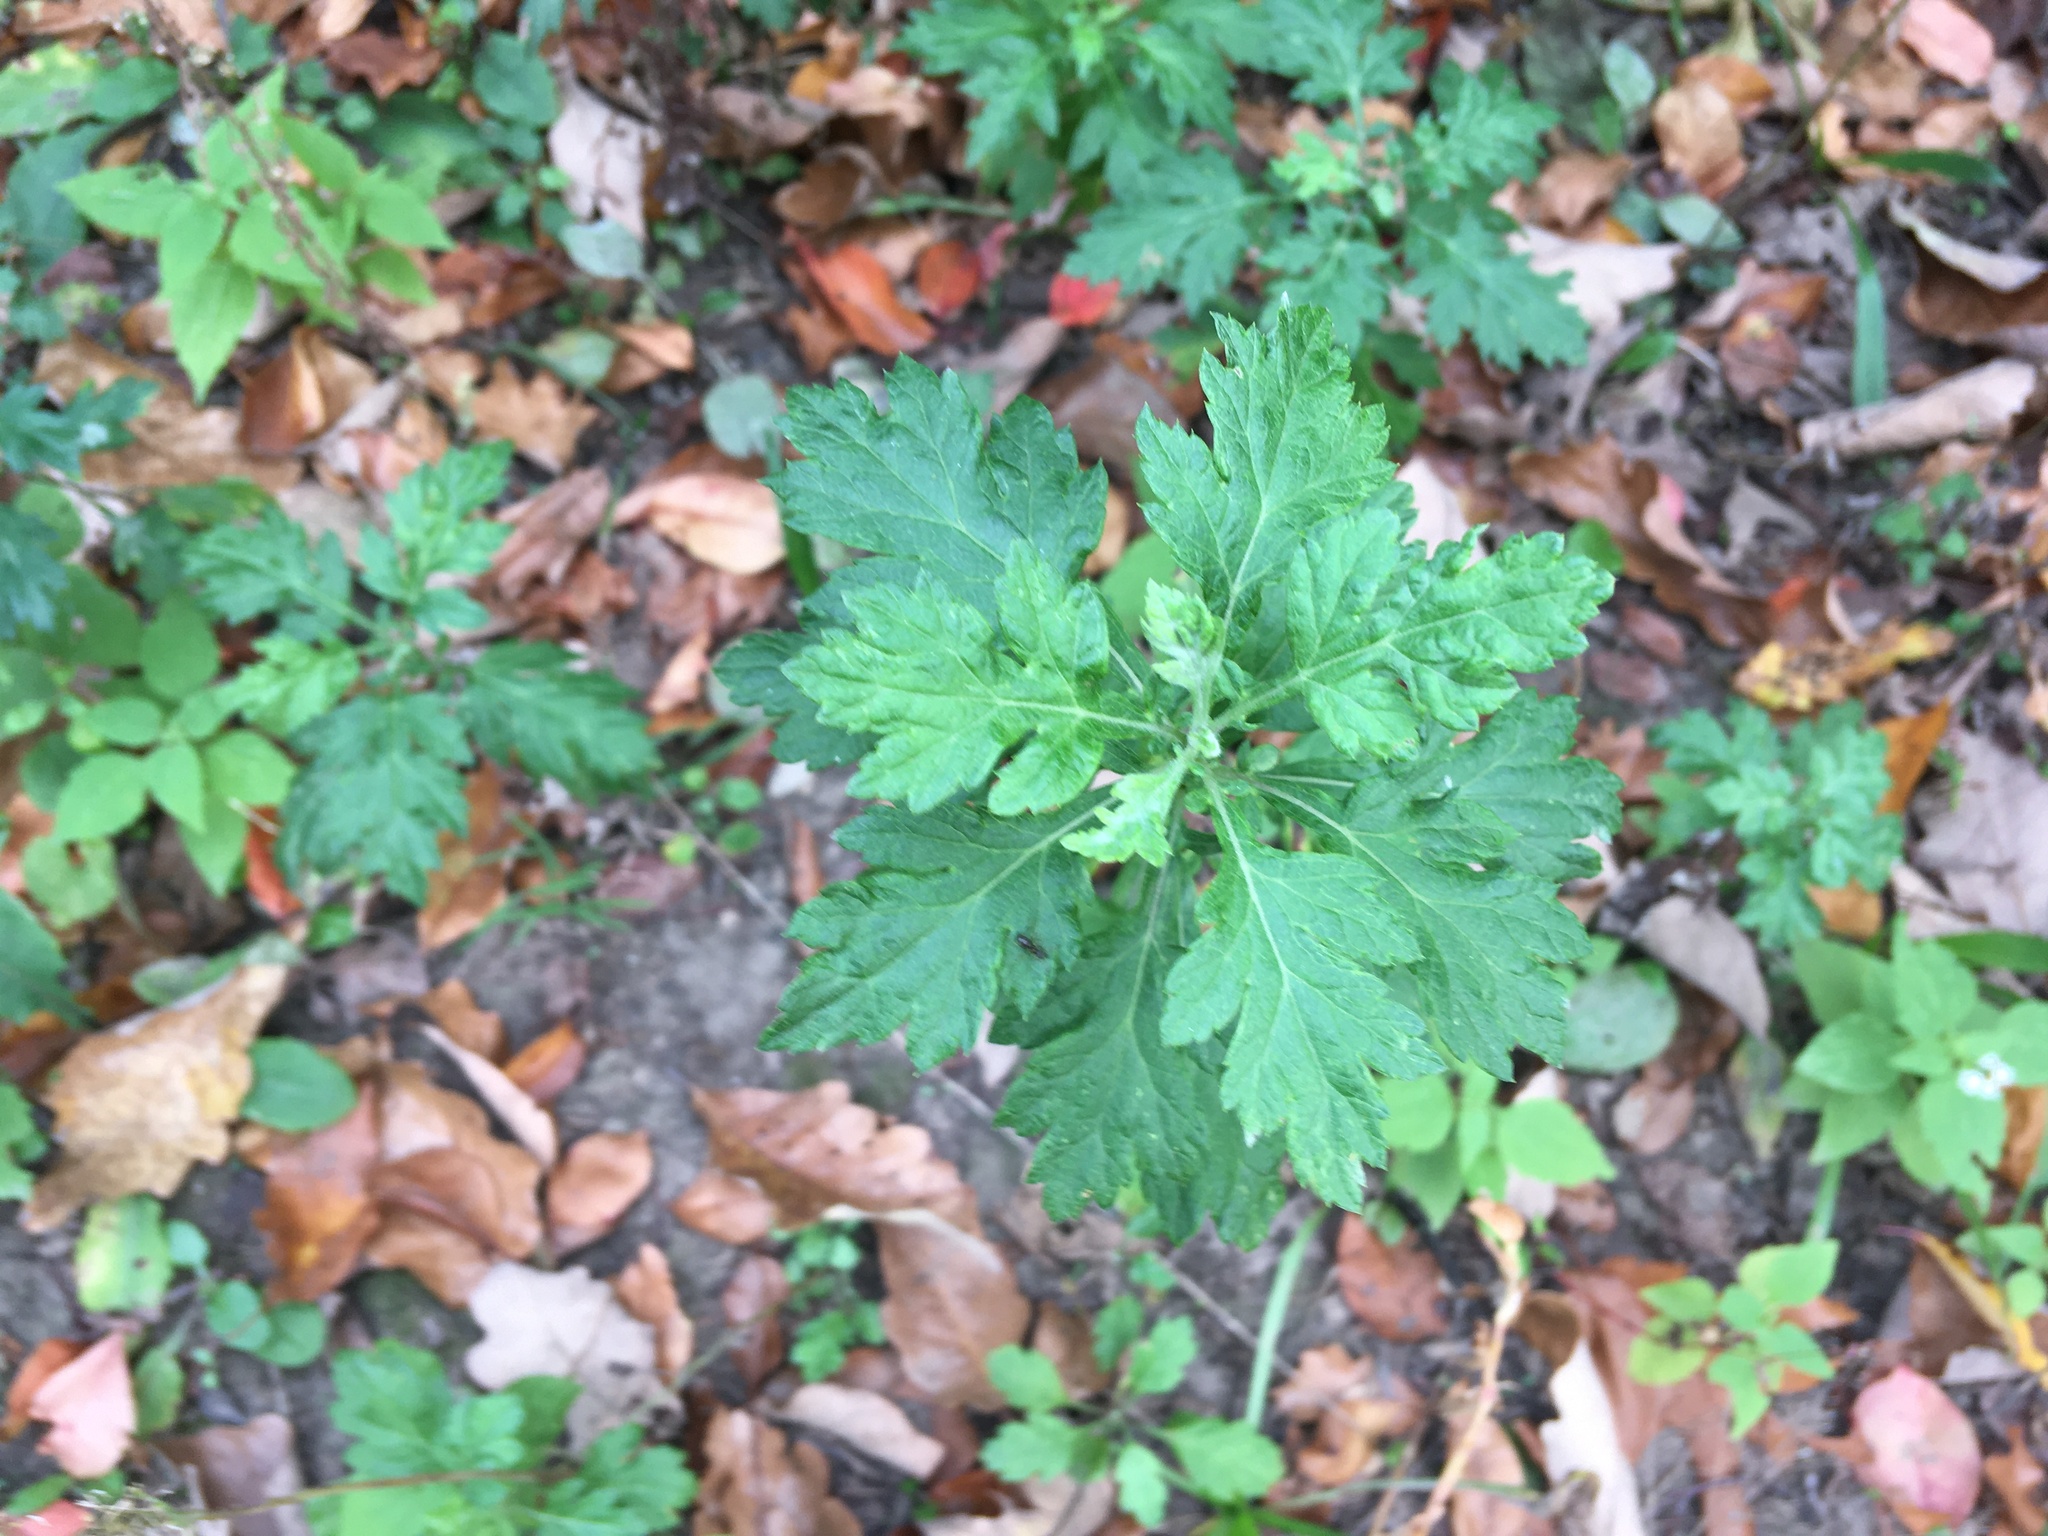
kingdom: Plantae
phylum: Tracheophyta
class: Magnoliopsida
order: Asterales
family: Asteraceae
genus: Artemisia
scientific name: Artemisia vulgaris
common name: Mugwort
